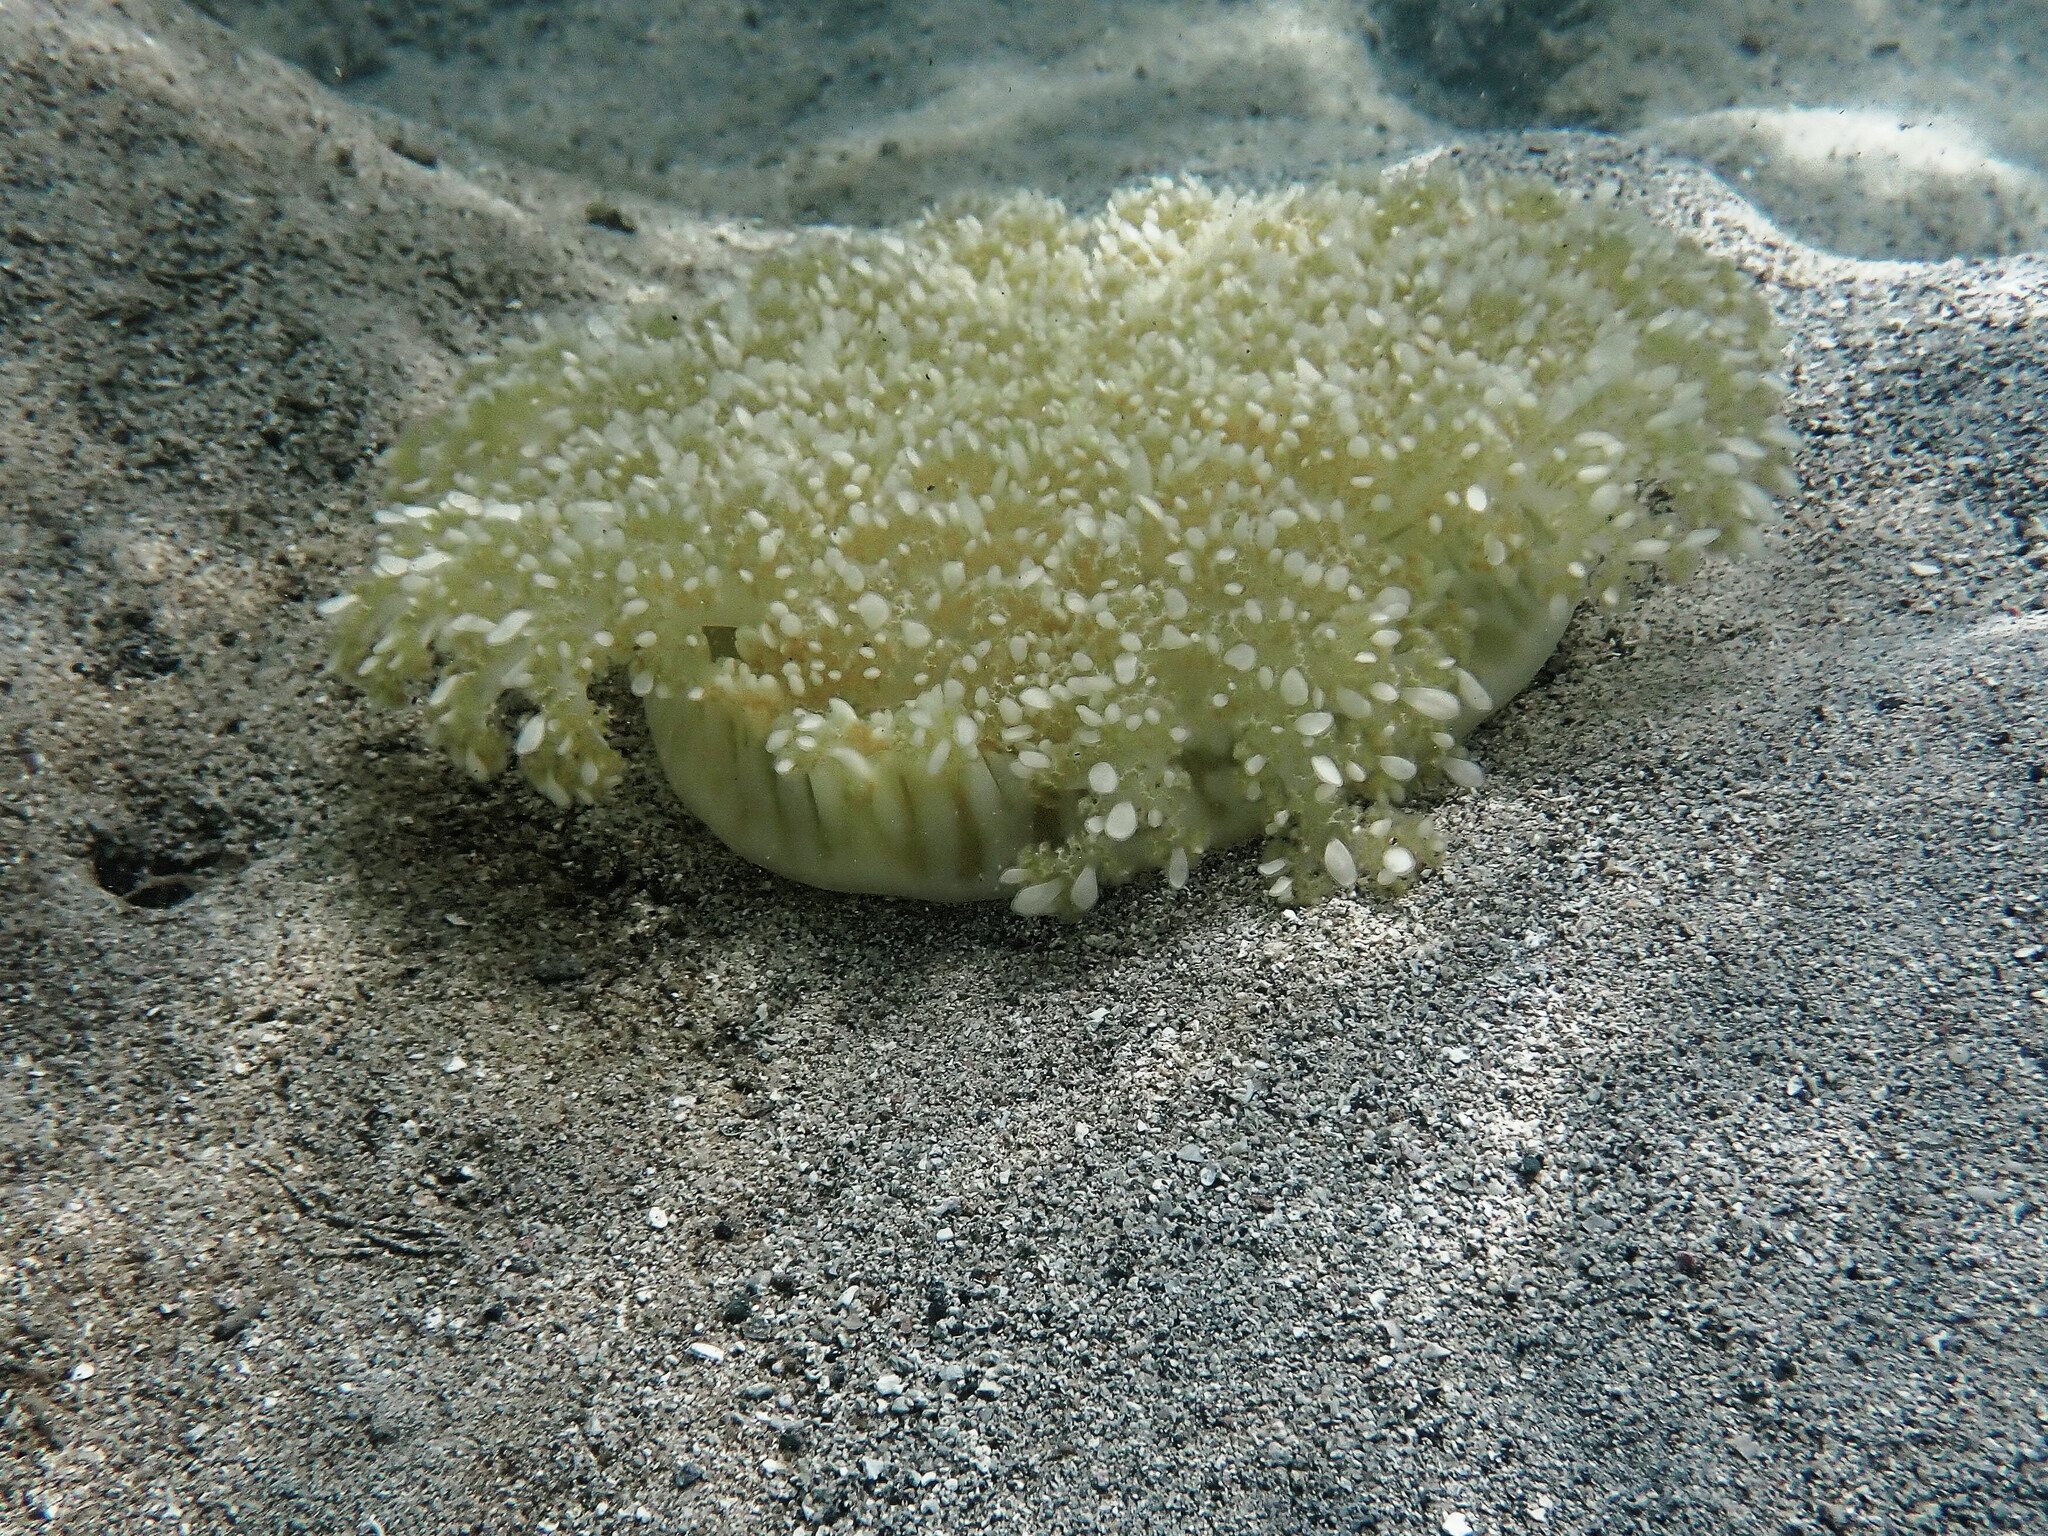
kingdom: Animalia
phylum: Cnidaria
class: Scyphozoa
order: Rhizostomeae
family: Cassiopeidae
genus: Cassiopea
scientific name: Cassiopea frondosa
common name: Upsidedown jellyfish
